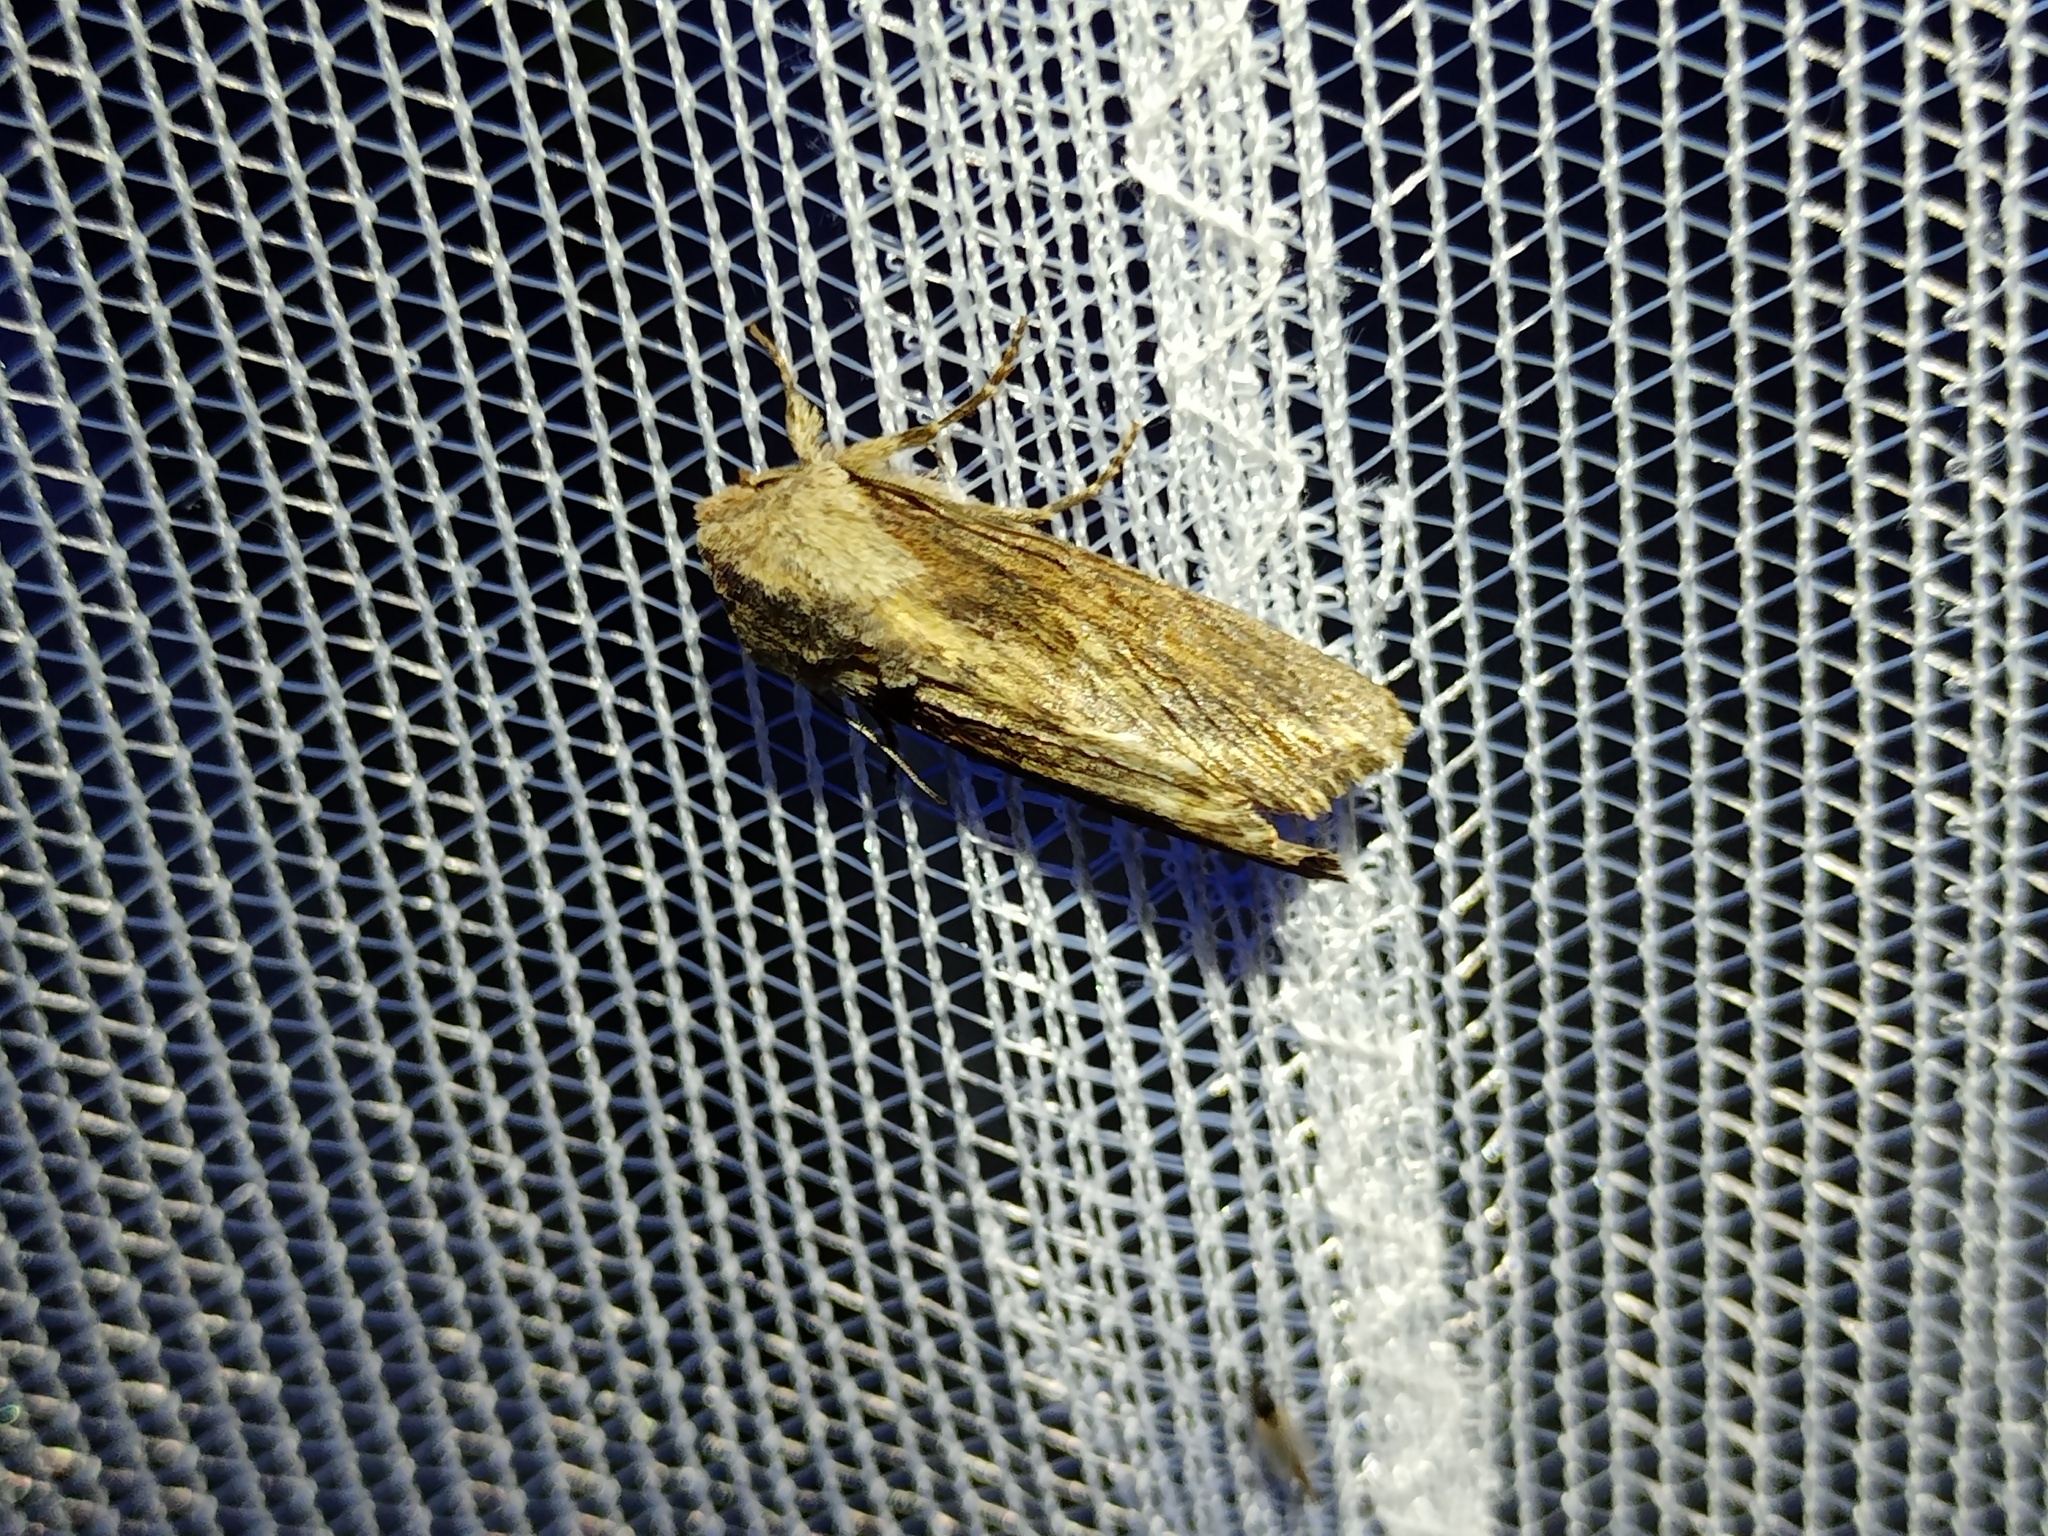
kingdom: Animalia
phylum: Arthropoda
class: Insecta
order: Lepidoptera
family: Noctuidae
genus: Egira
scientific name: Egira conspicillaris
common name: Silver cloud
